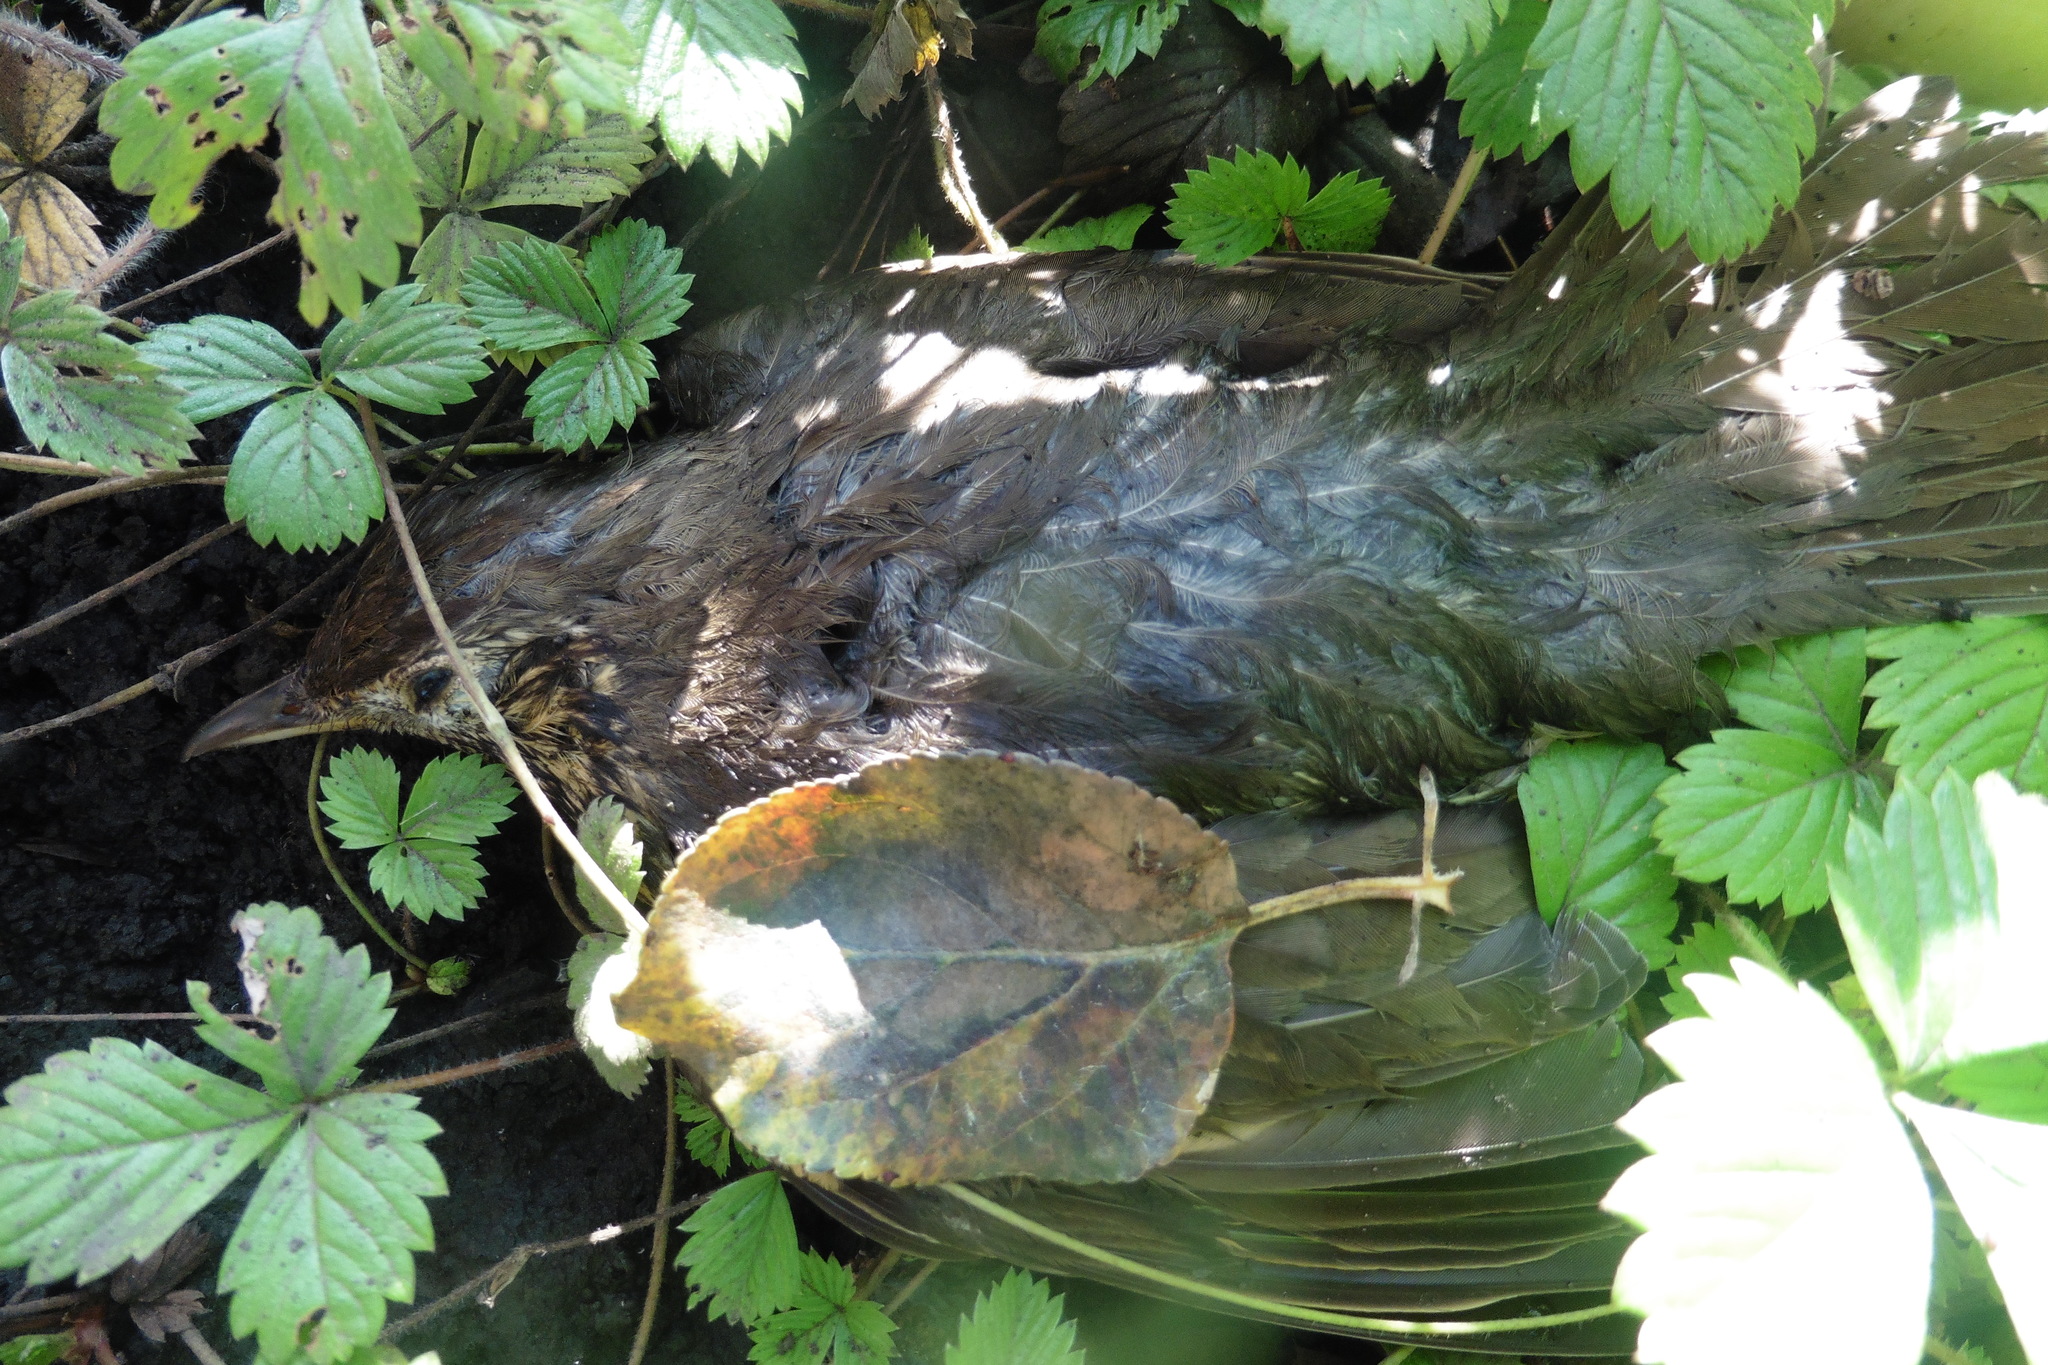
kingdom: Animalia
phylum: Chordata
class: Aves
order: Passeriformes
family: Turdidae
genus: Turdus
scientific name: Turdus philomelos
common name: Song thrush
